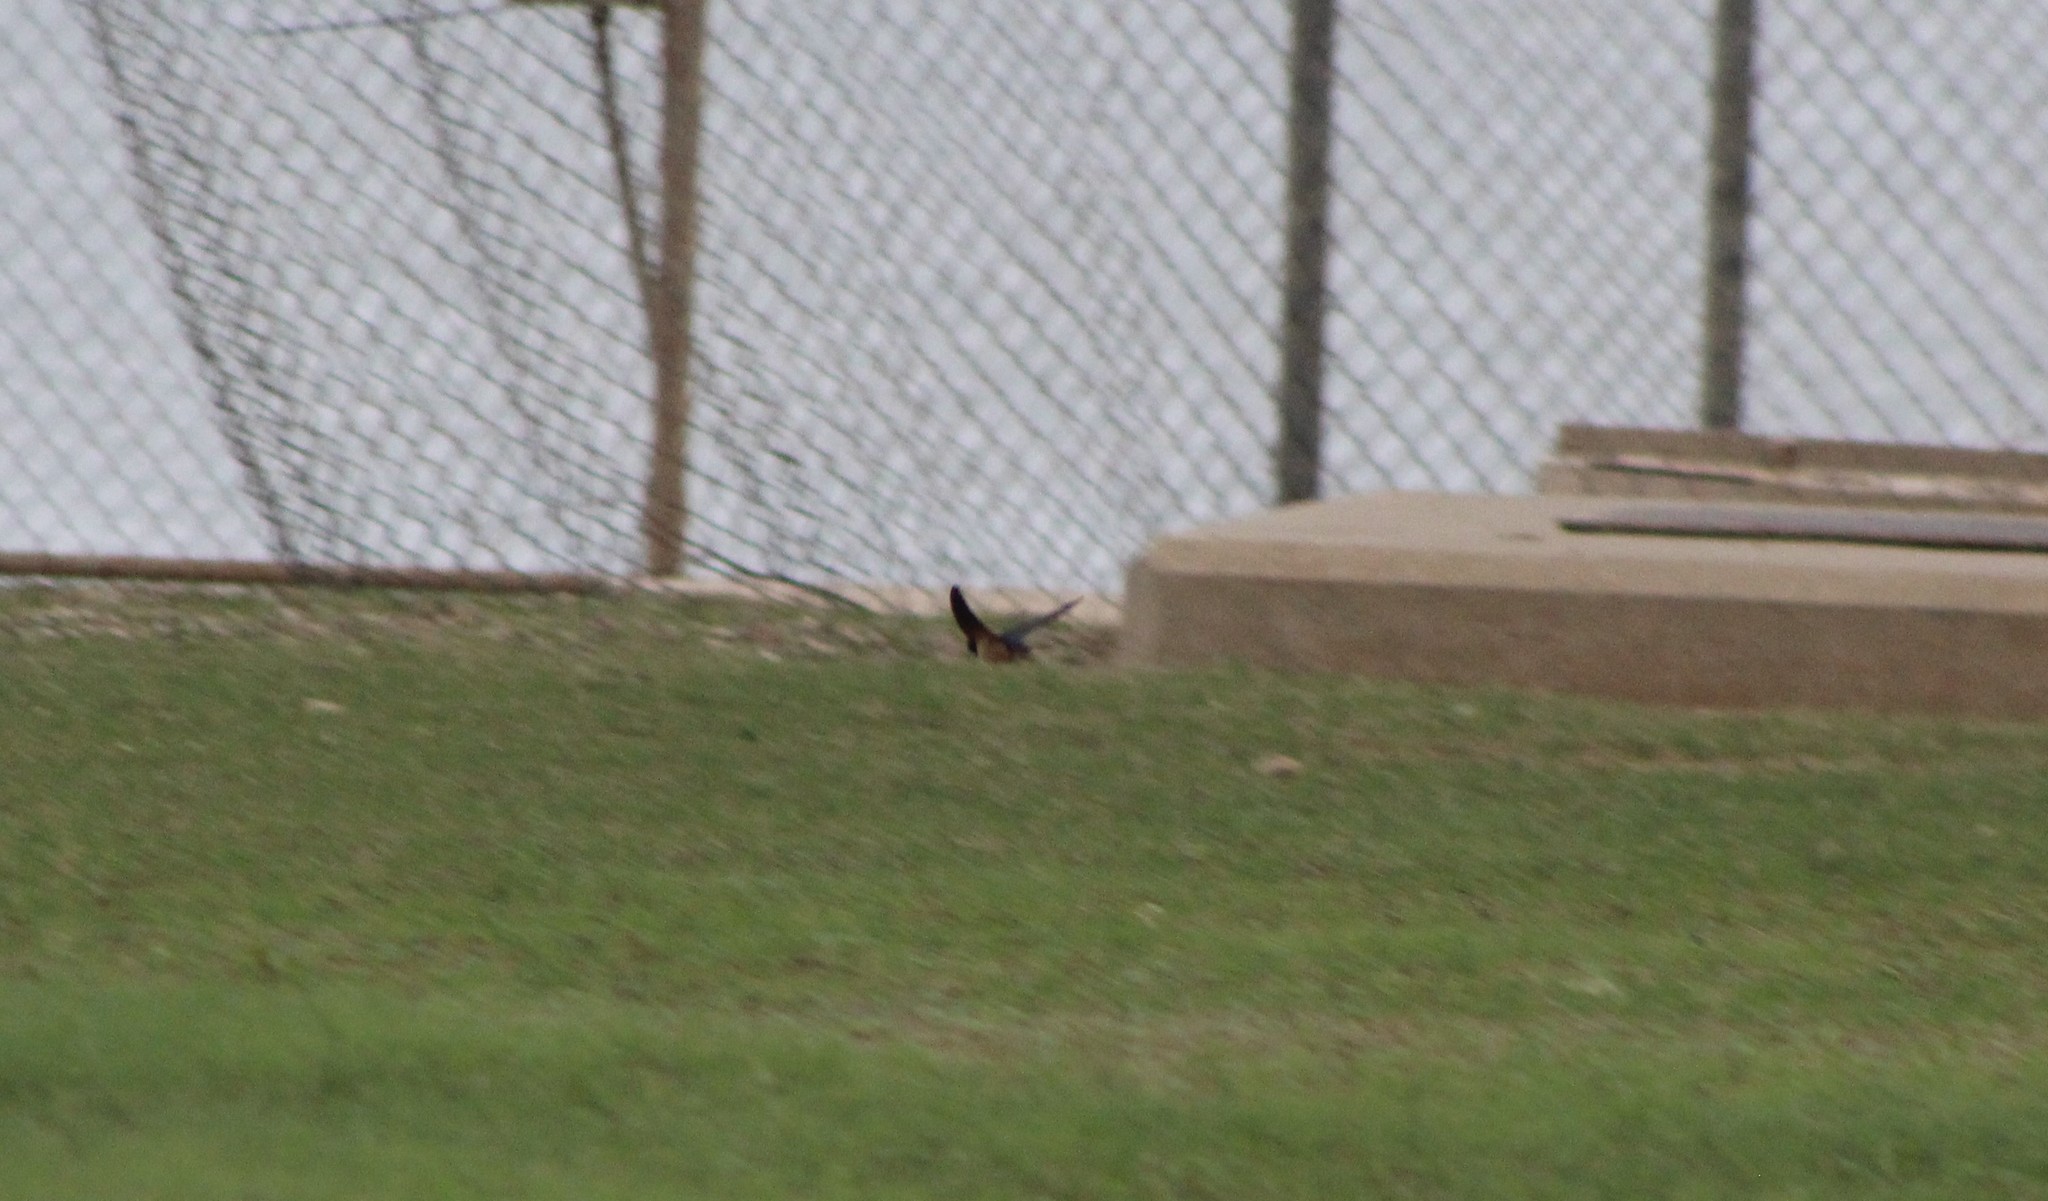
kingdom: Animalia
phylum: Chordata
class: Aves
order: Passeriformes
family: Hirundinidae
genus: Hirundo
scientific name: Hirundo rustica
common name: Barn swallow
